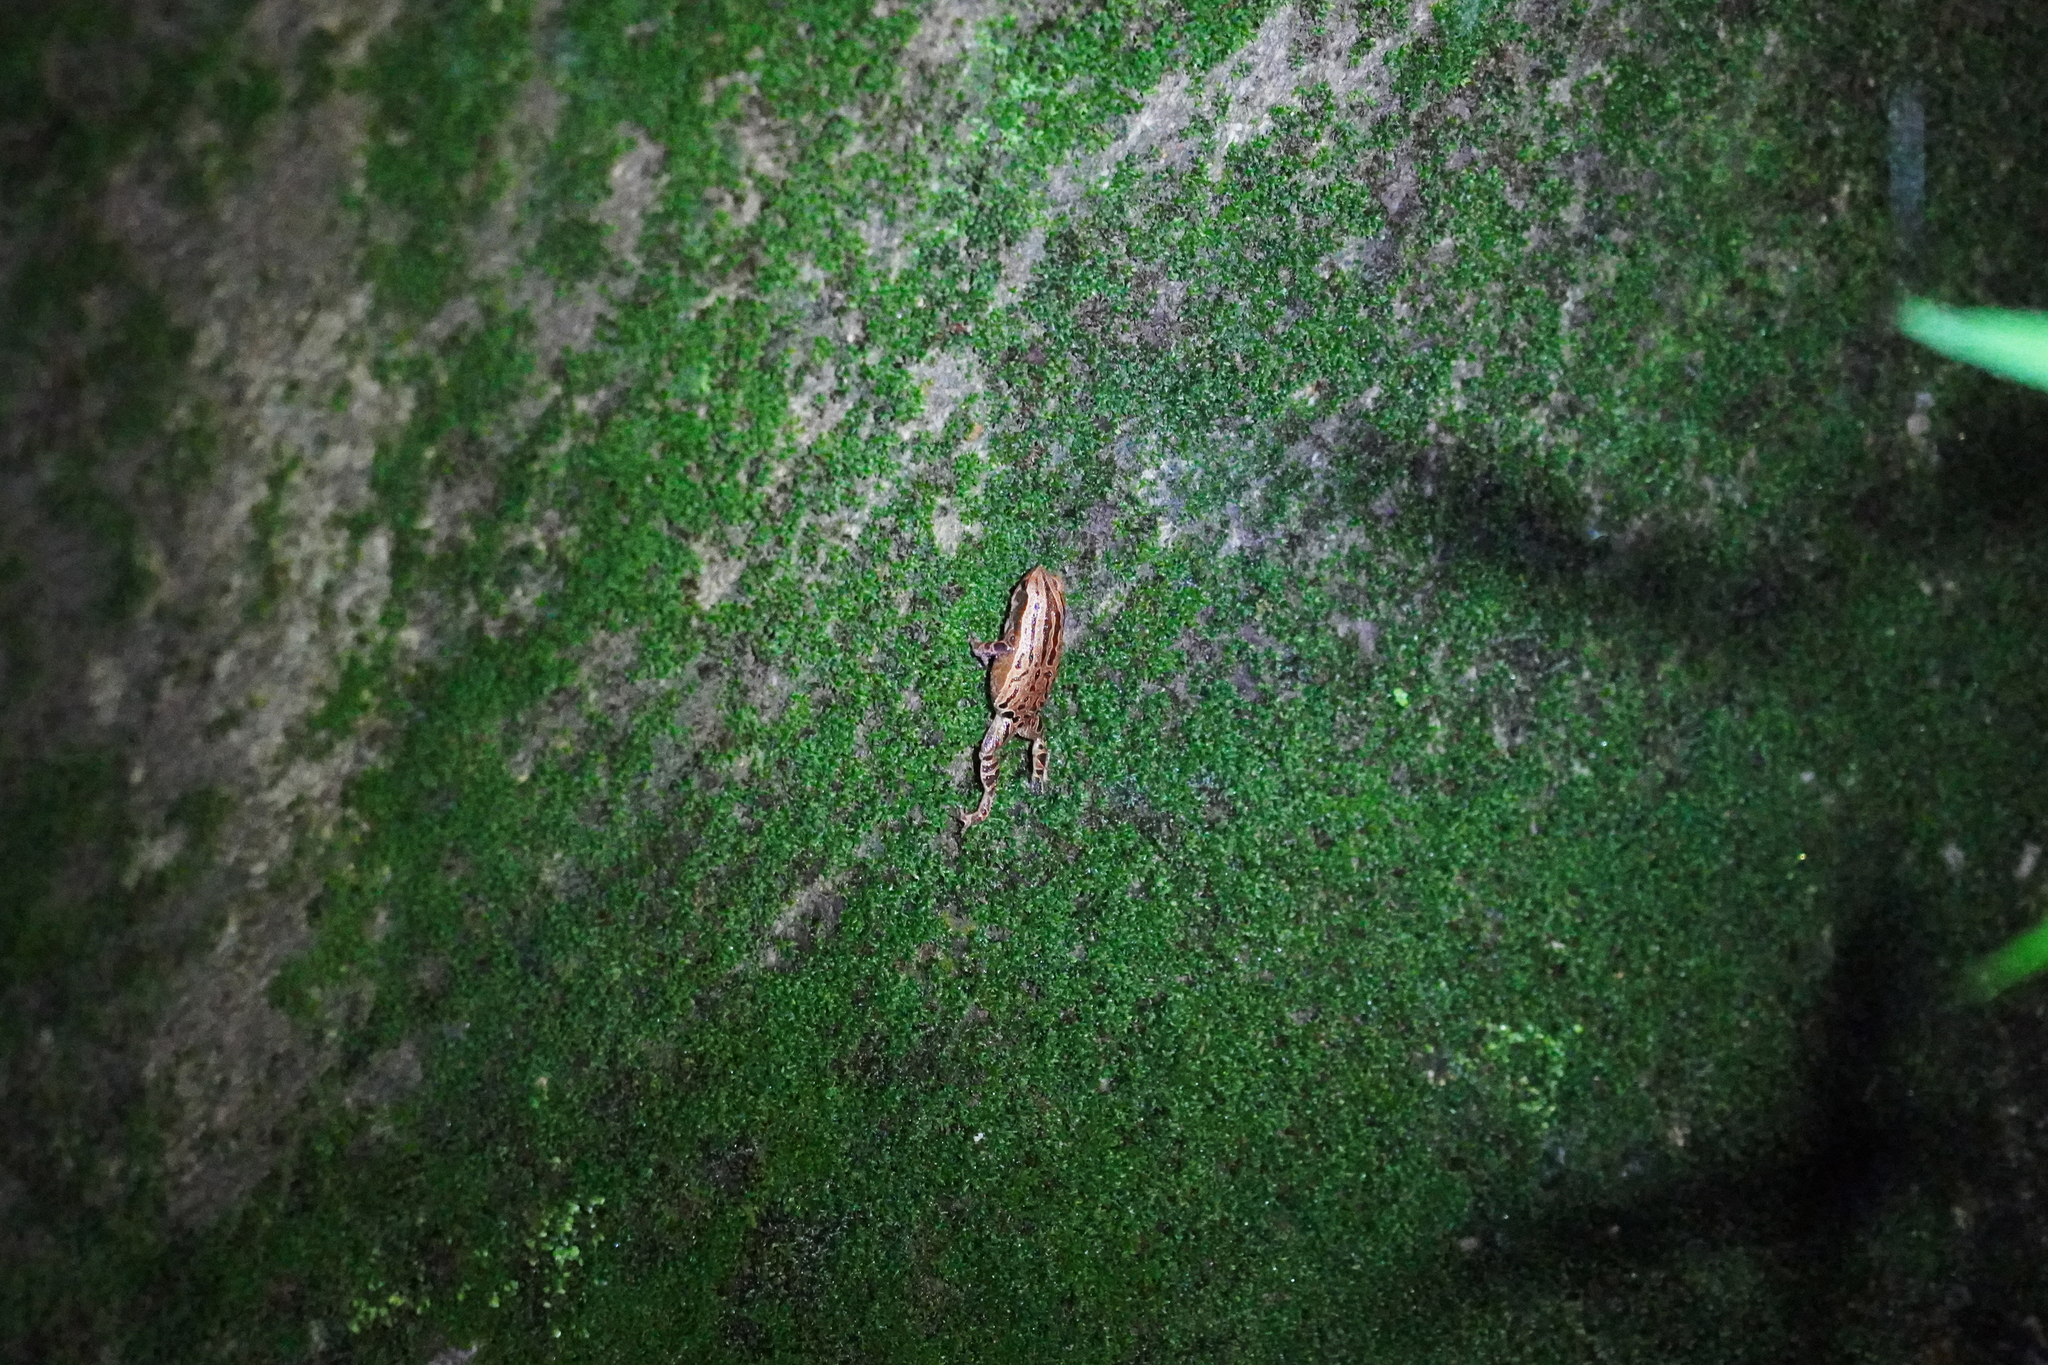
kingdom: Animalia
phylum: Chordata
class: Amphibia
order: Anura
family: Microhylidae
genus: Kalophrynus
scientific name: Kalophrynus interlineatus
